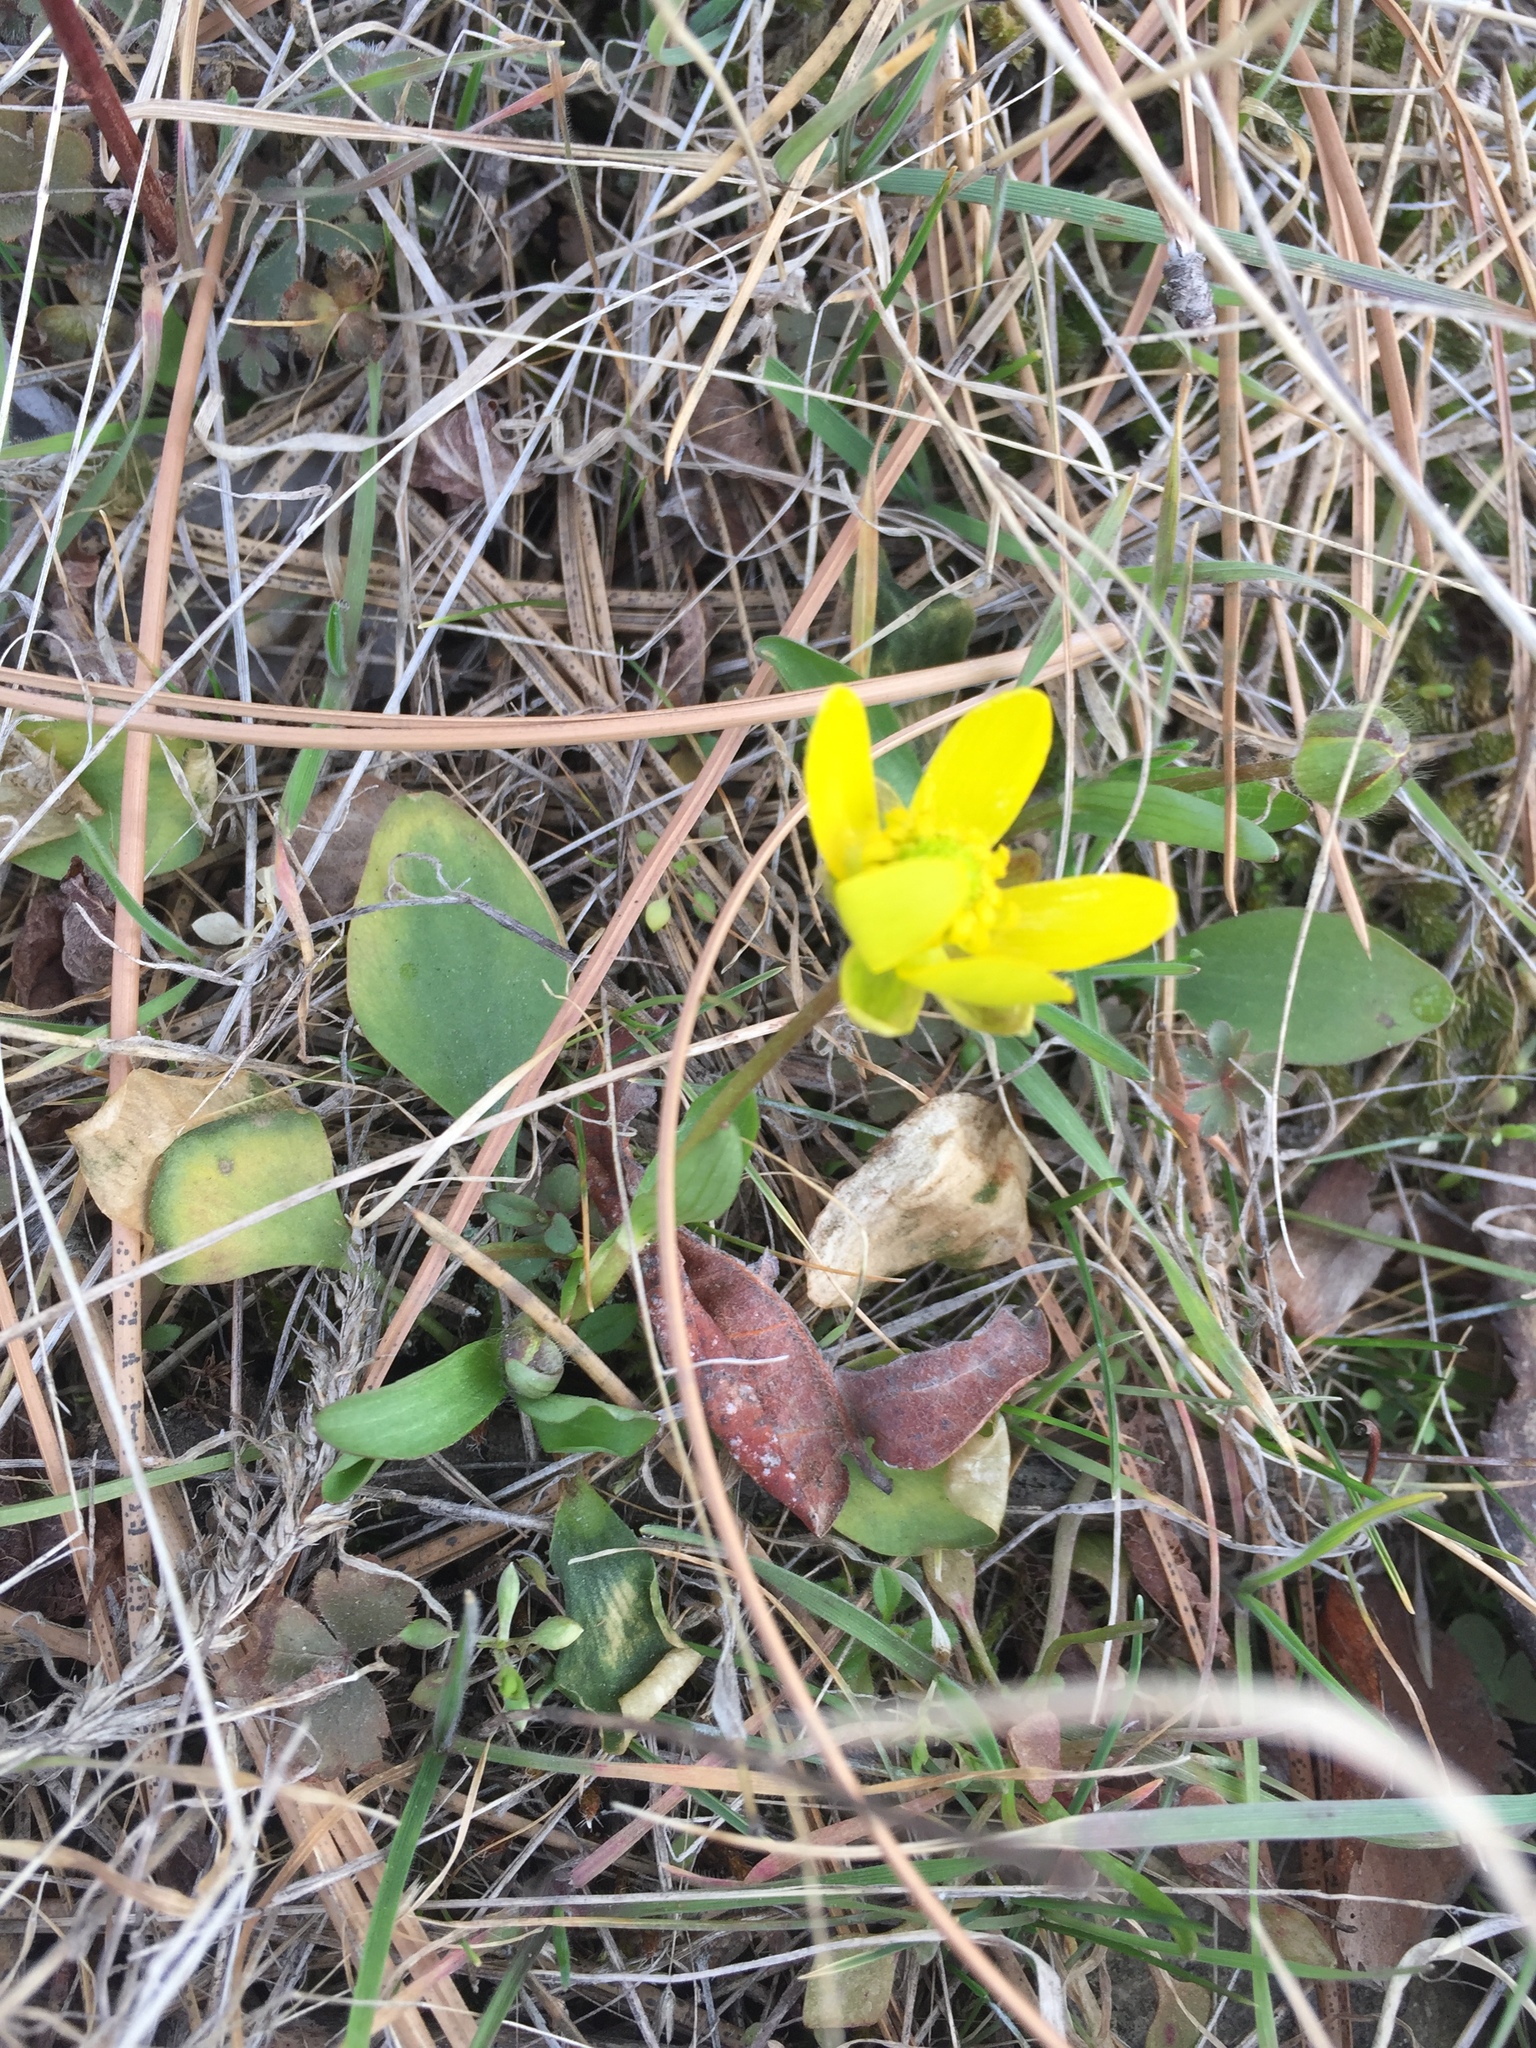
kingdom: Plantae
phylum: Tracheophyta
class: Magnoliopsida
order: Ranunculales
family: Ranunculaceae
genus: Ranunculus
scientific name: Ranunculus glaberrimus
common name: Sagebrush buttercup
